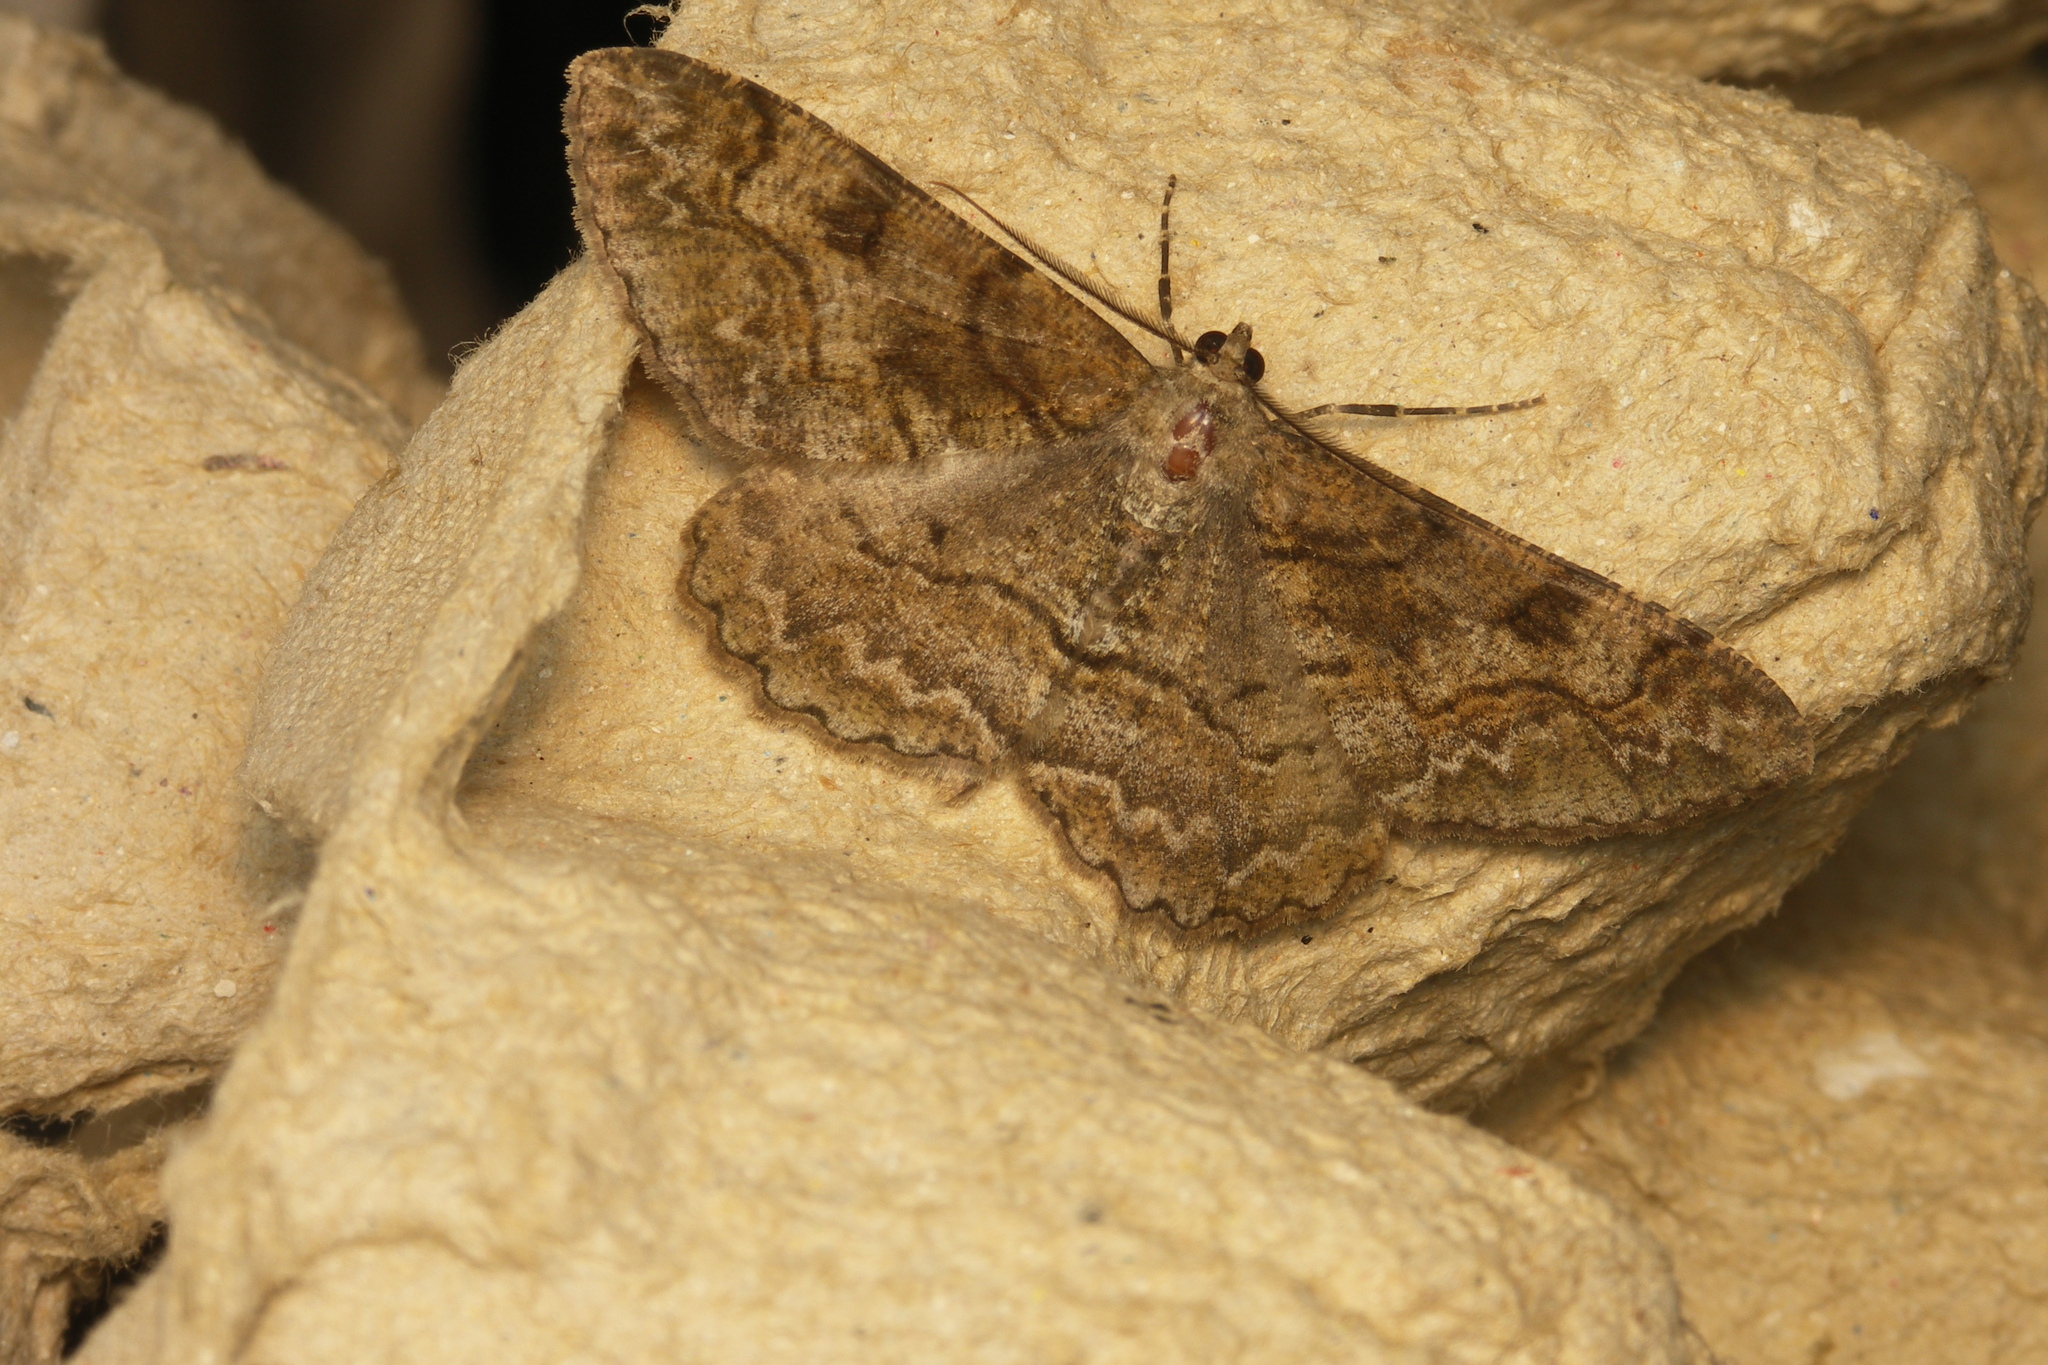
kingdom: Animalia
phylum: Arthropoda
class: Insecta
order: Lepidoptera
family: Geometridae
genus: Alcis
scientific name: Alcis repandata
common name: Mottled beauty
